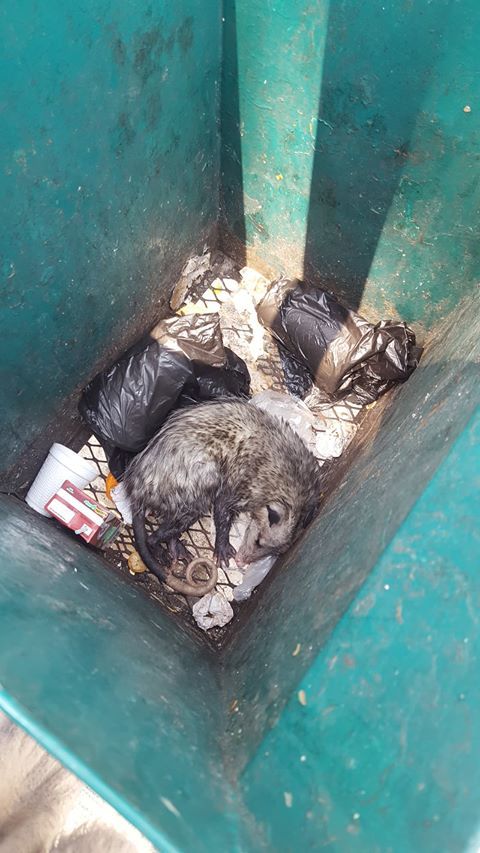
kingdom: Animalia
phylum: Chordata
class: Mammalia
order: Didelphimorphia
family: Didelphidae
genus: Didelphis
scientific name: Didelphis virginiana
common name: Virginia opossum
